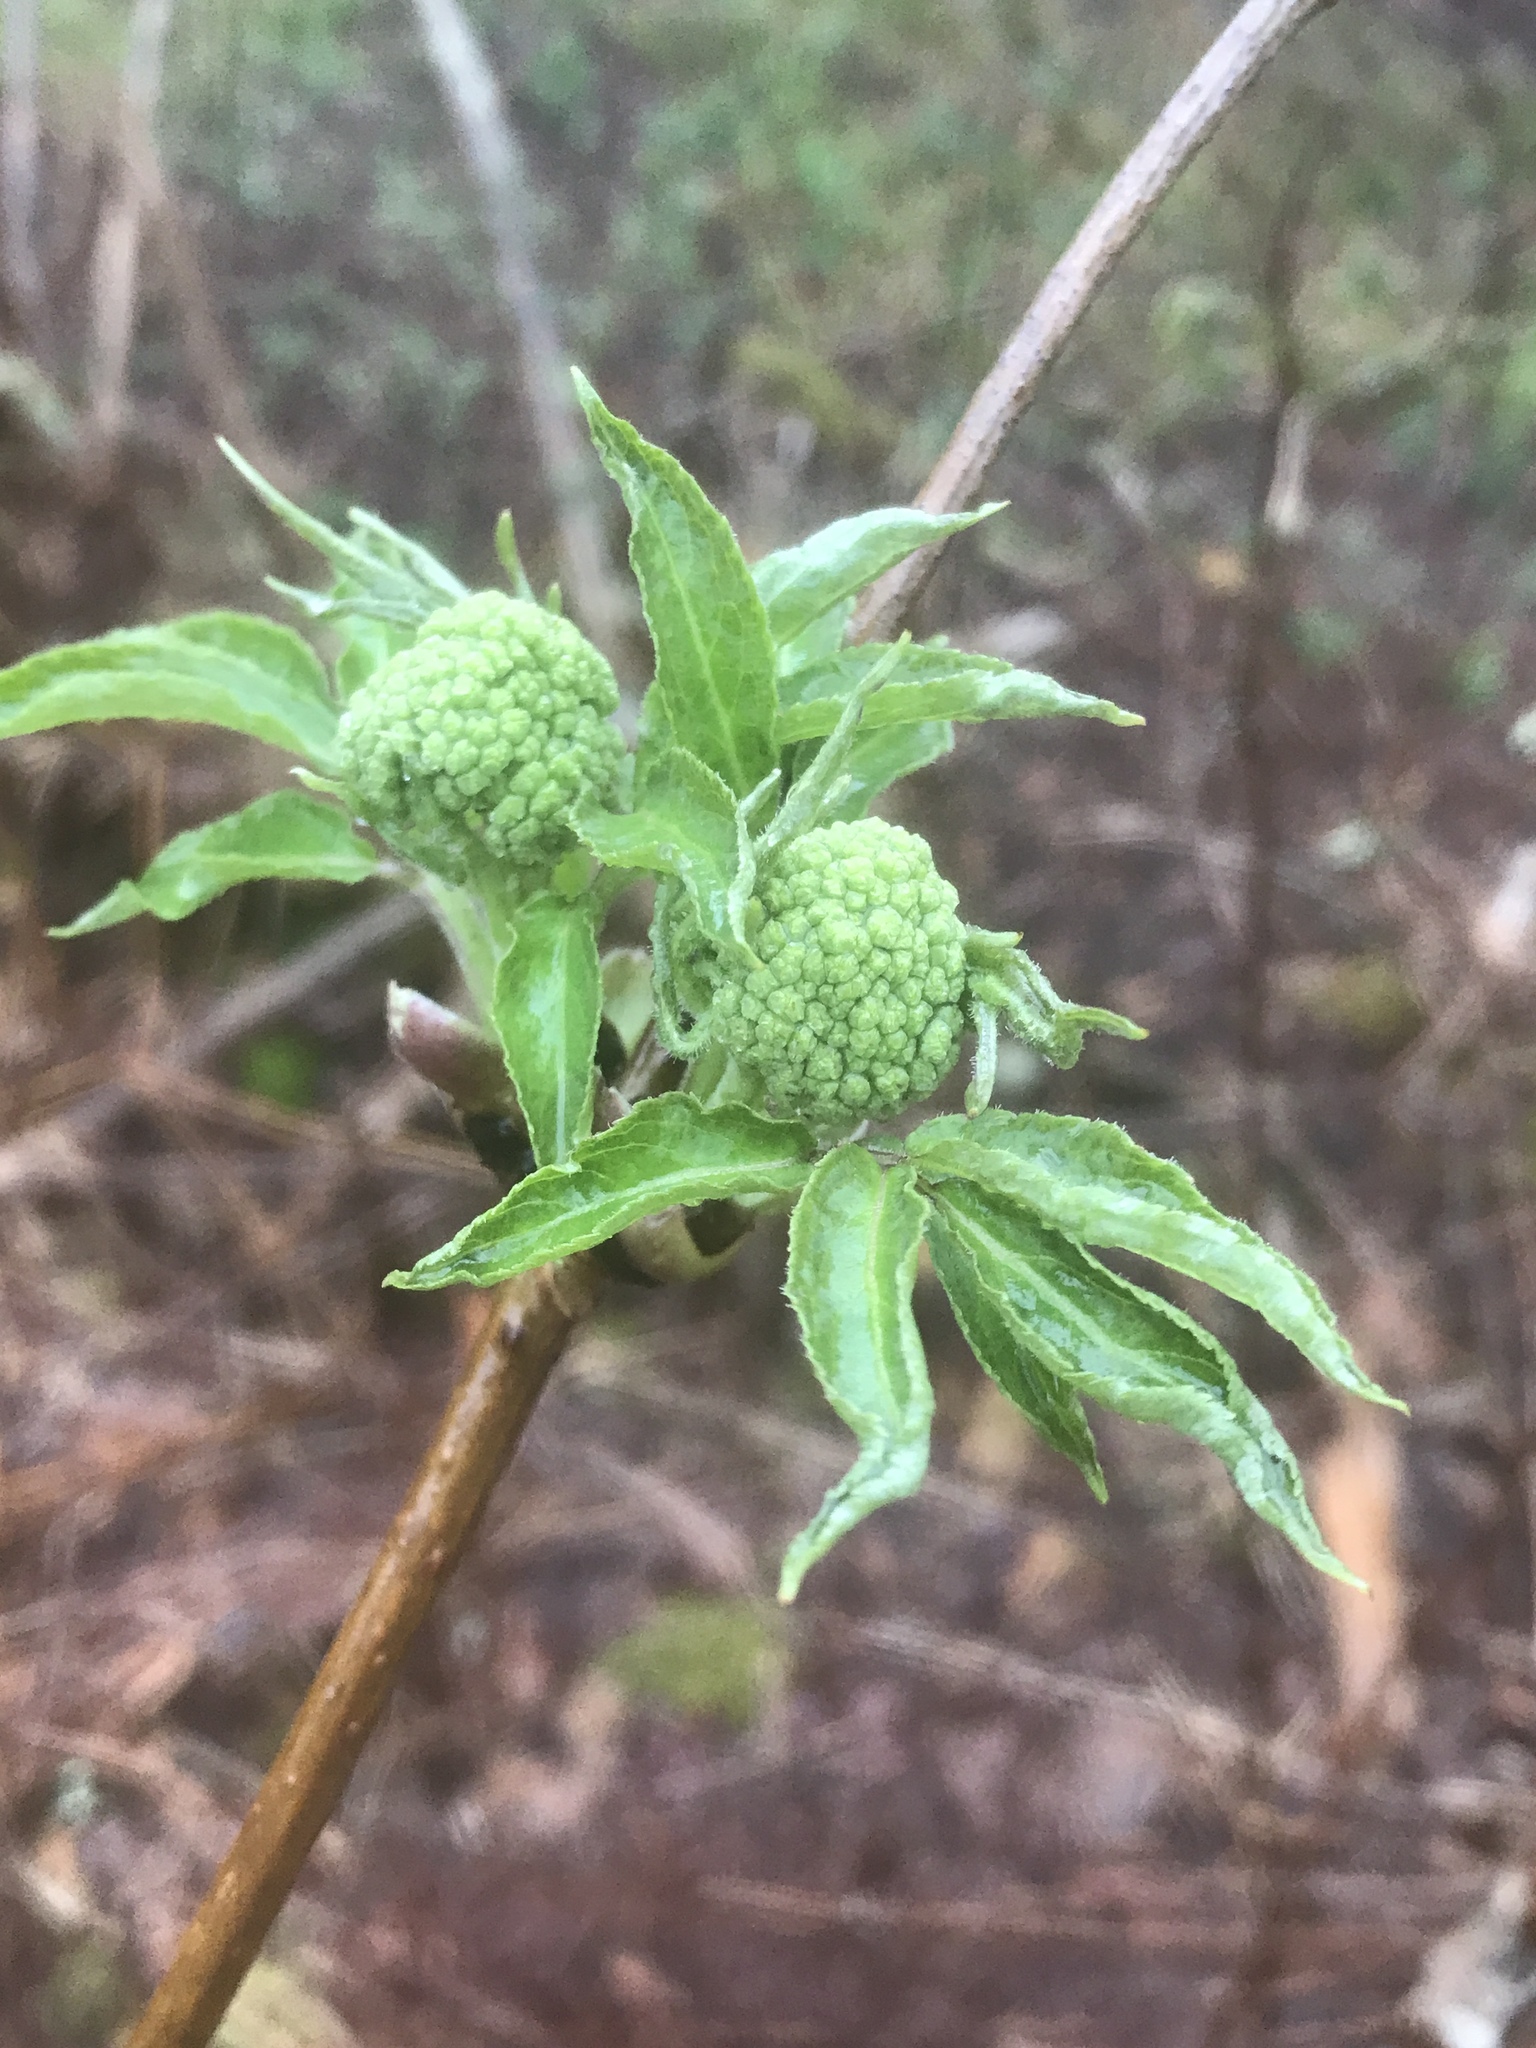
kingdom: Plantae
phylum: Tracheophyta
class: Magnoliopsida
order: Dipsacales
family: Viburnaceae
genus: Sambucus
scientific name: Sambucus racemosa
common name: Red-berried elder
